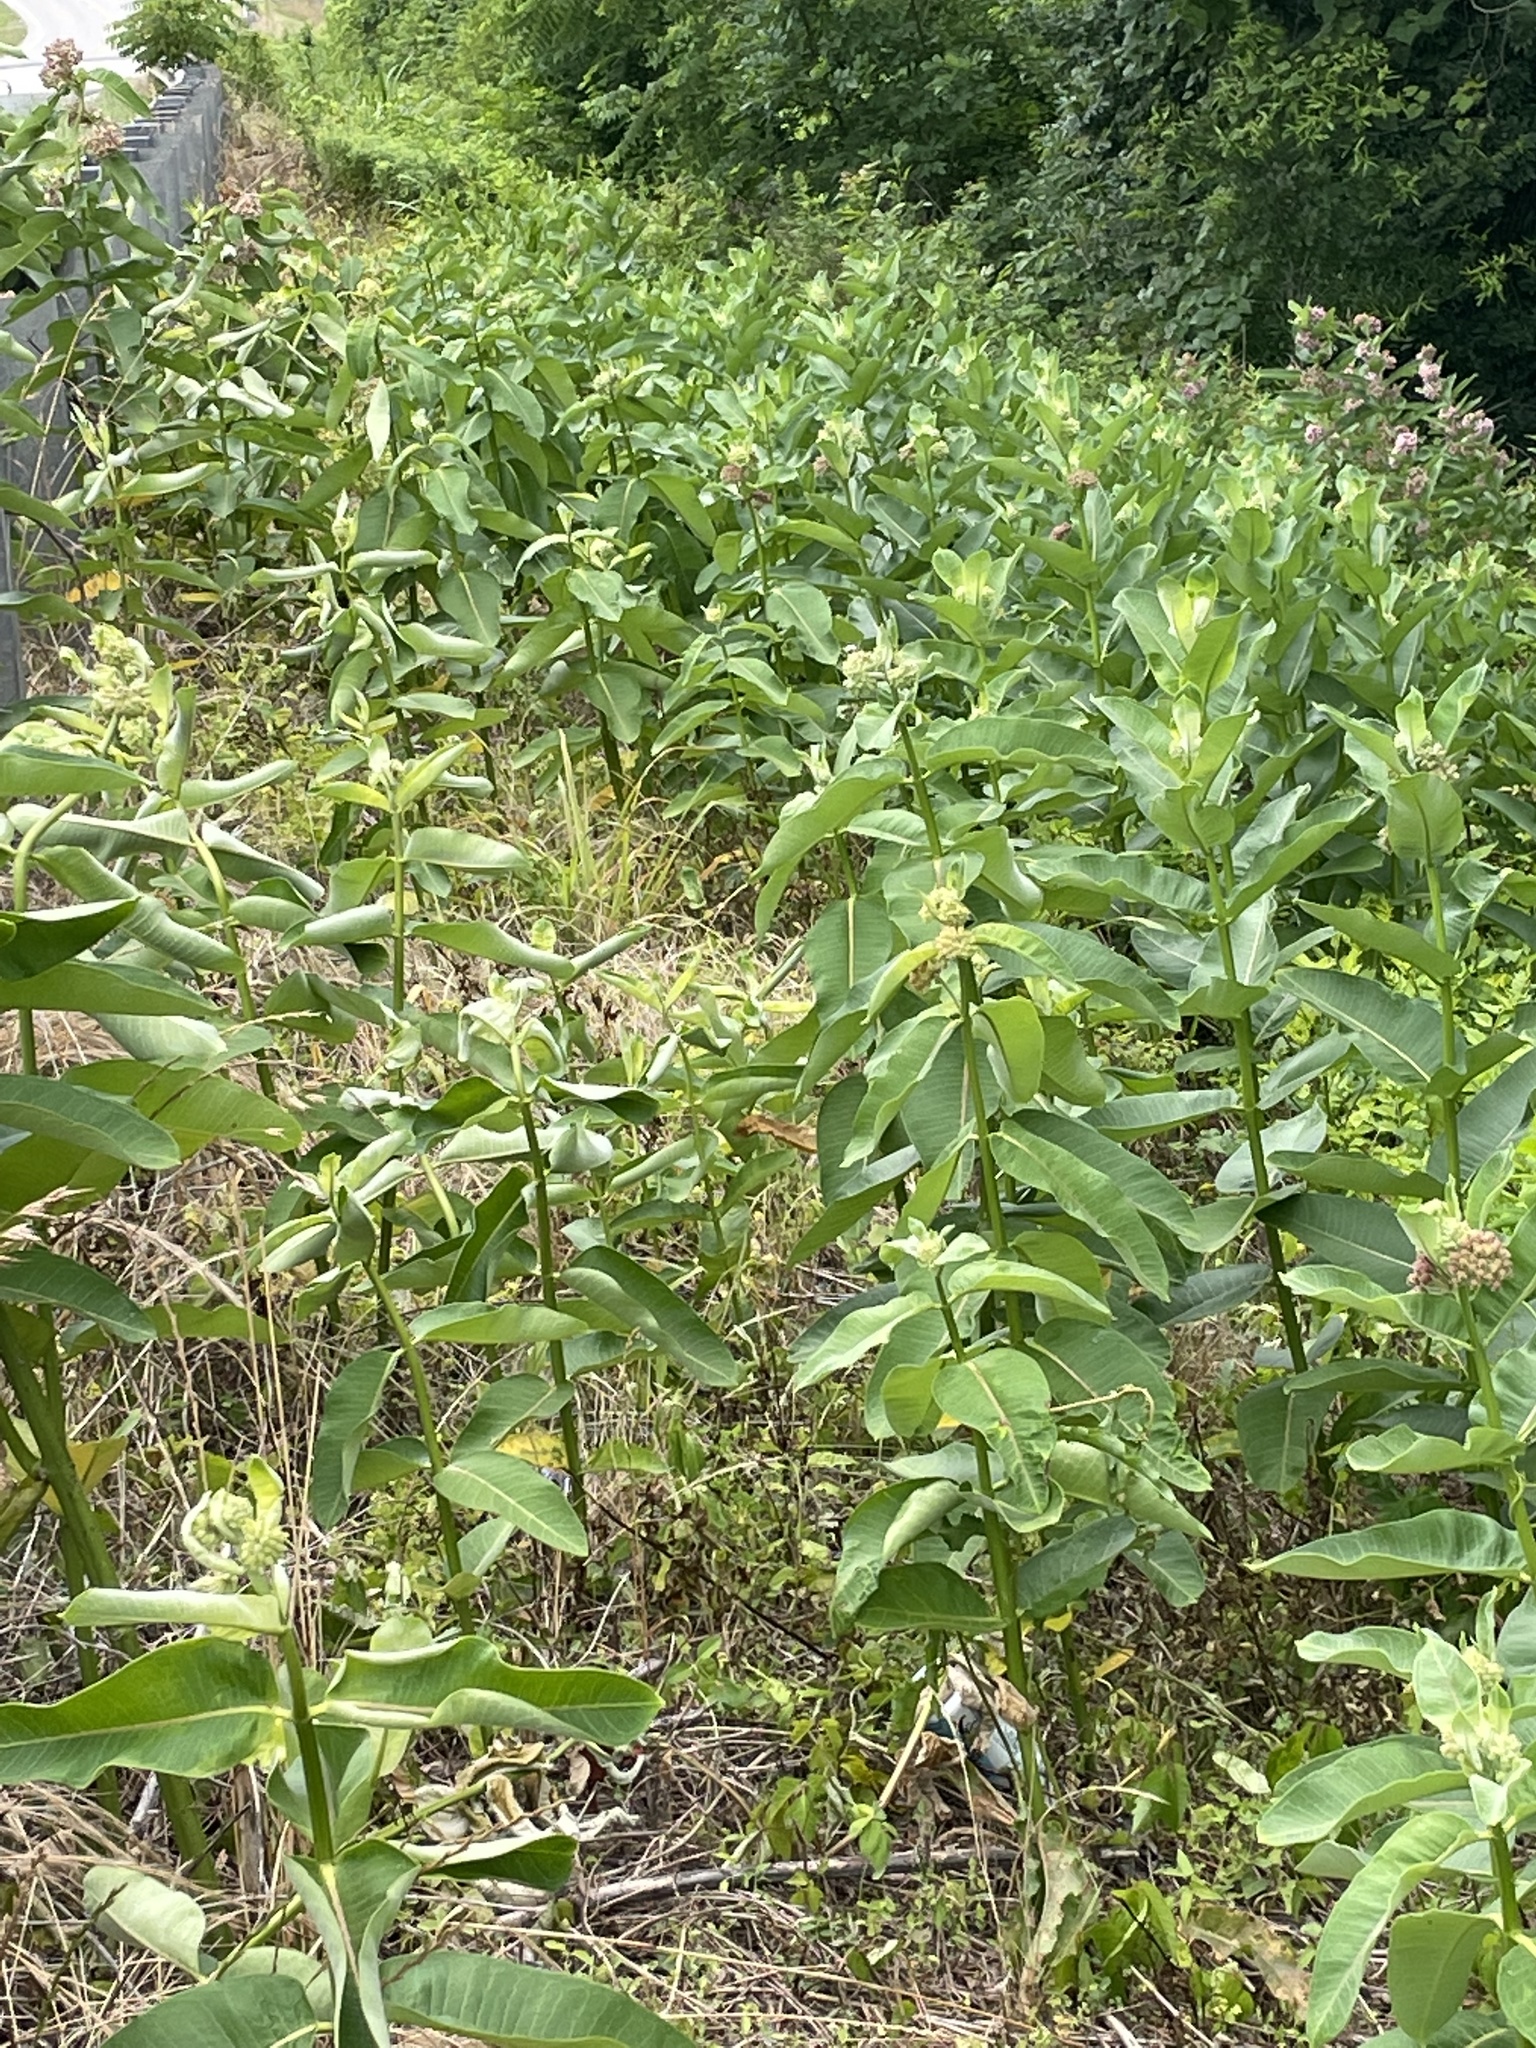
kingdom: Plantae
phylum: Tracheophyta
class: Magnoliopsida
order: Gentianales
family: Apocynaceae
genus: Asclepias
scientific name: Asclepias syriaca
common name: Common milkweed
